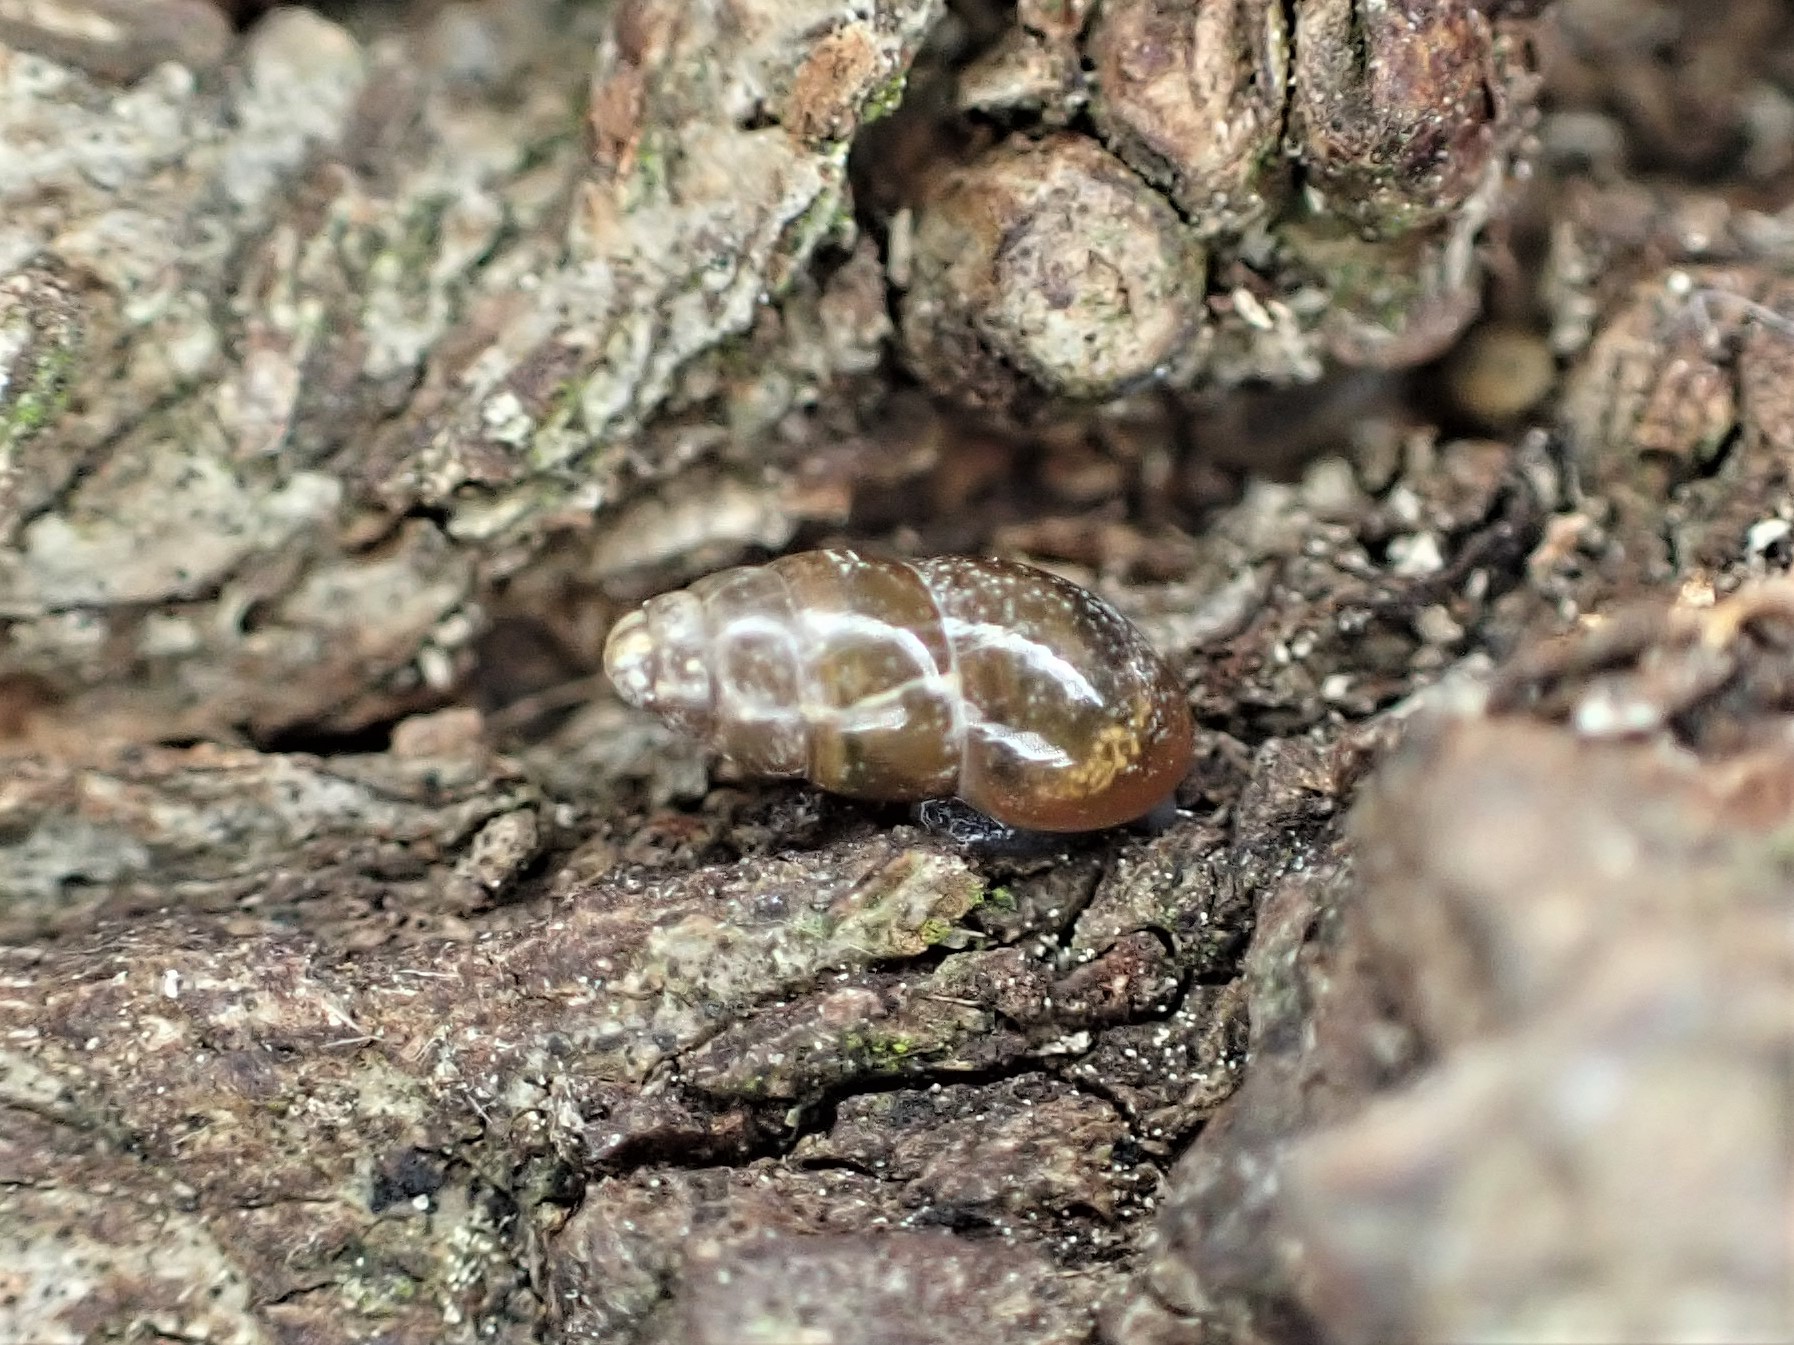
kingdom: Animalia
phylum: Mollusca
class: Gastropoda
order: Stylommatophora
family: Cochlicopidae
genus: Cochlicopa
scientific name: Cochlicopa lubrica
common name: Glossy pillar snail
